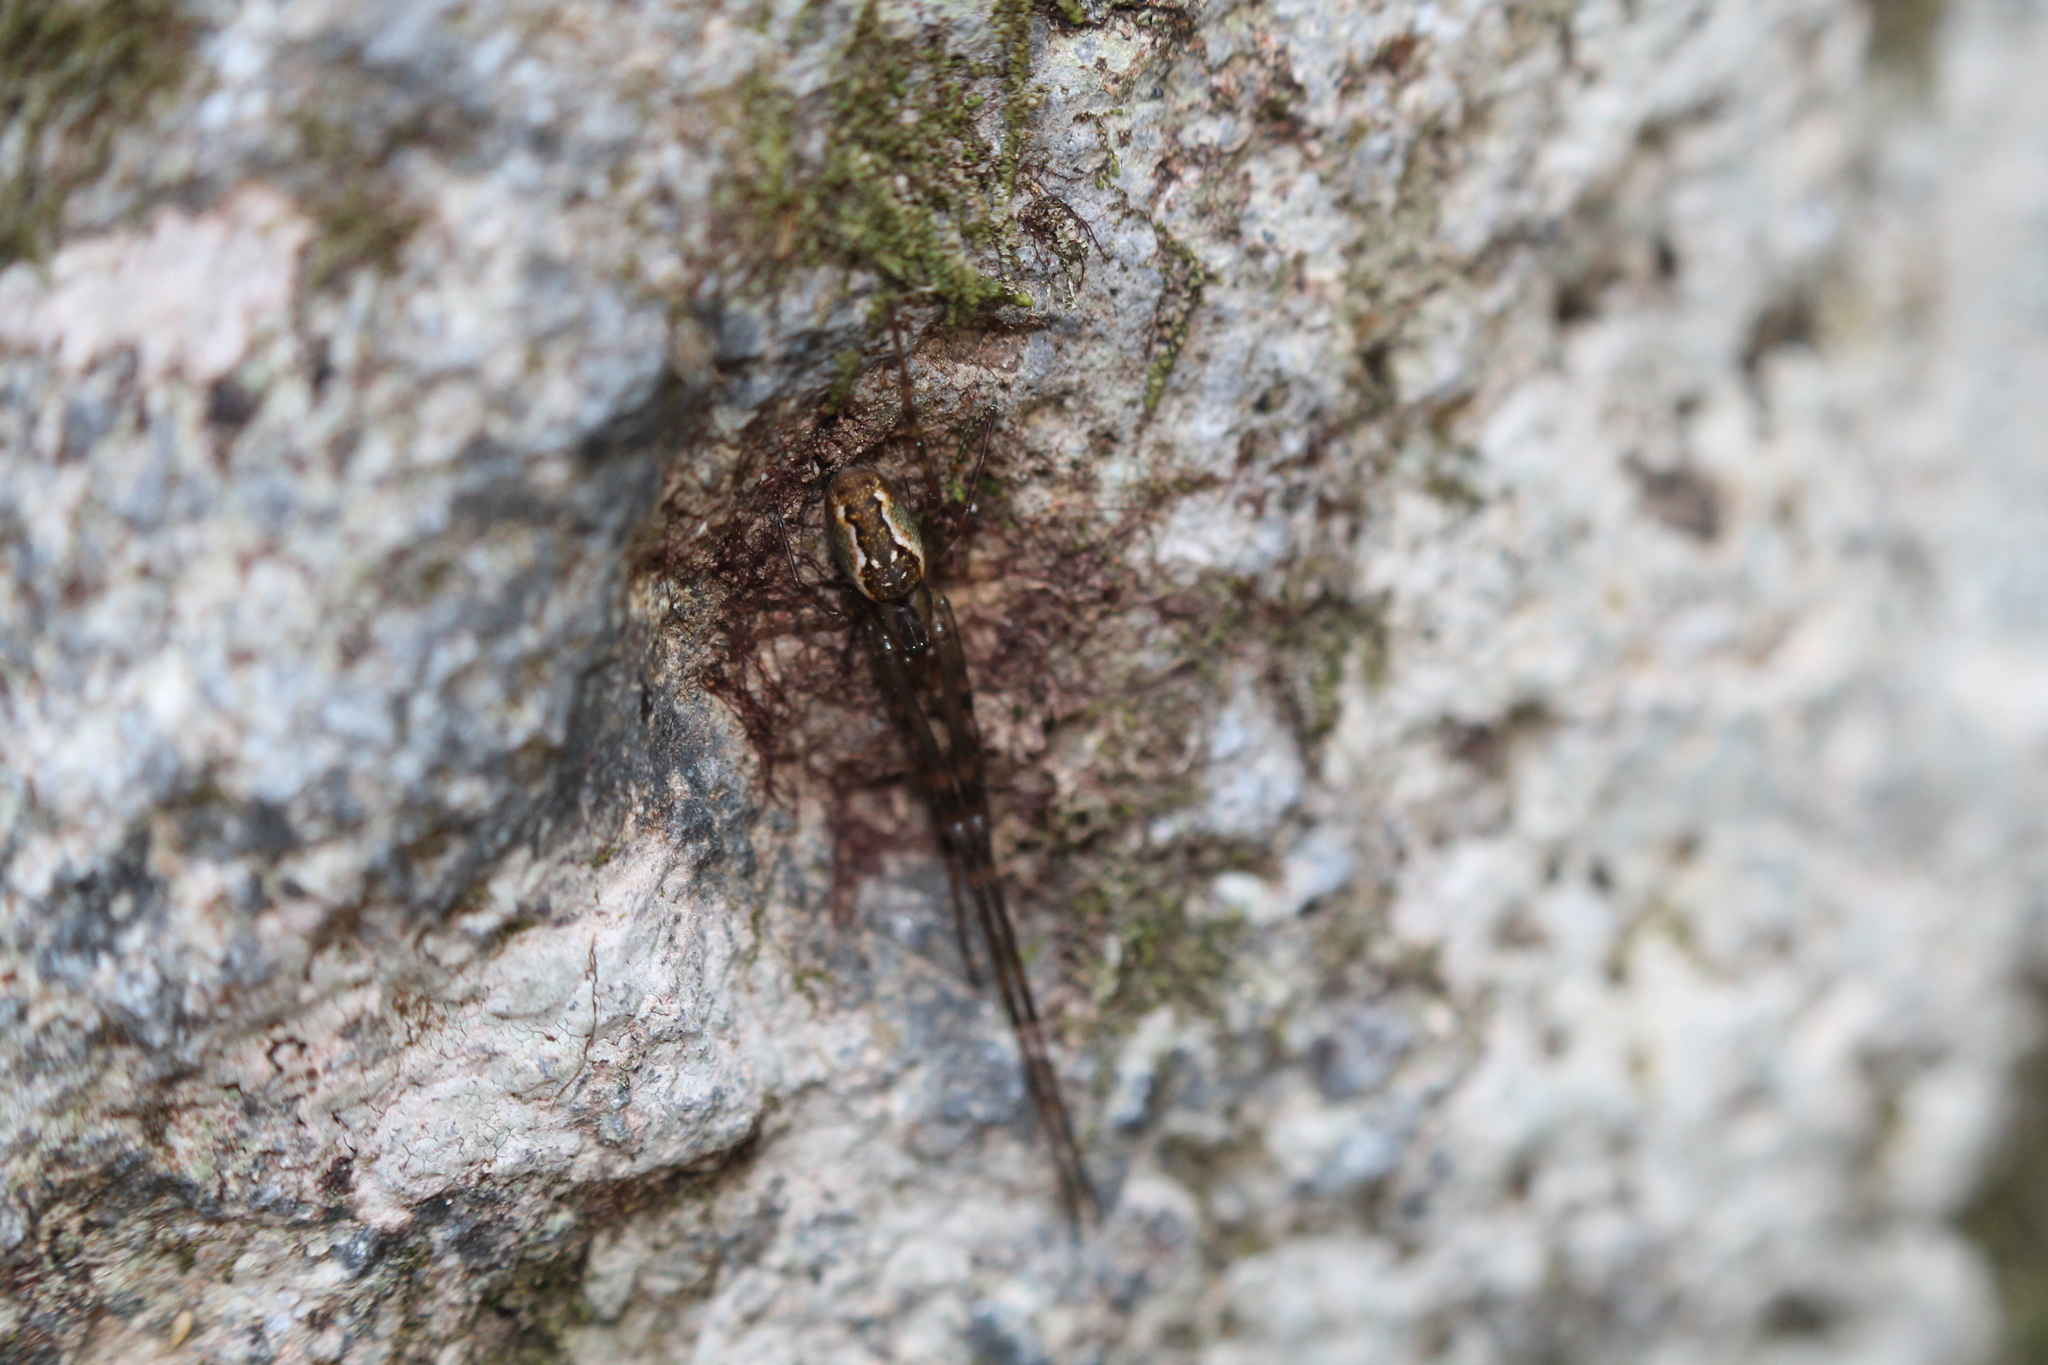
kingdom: Animalia
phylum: Arthropoda
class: Arachnida
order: Araneae
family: Tetragnathidae
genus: Nanometa
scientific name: Nanometa lagenifera
